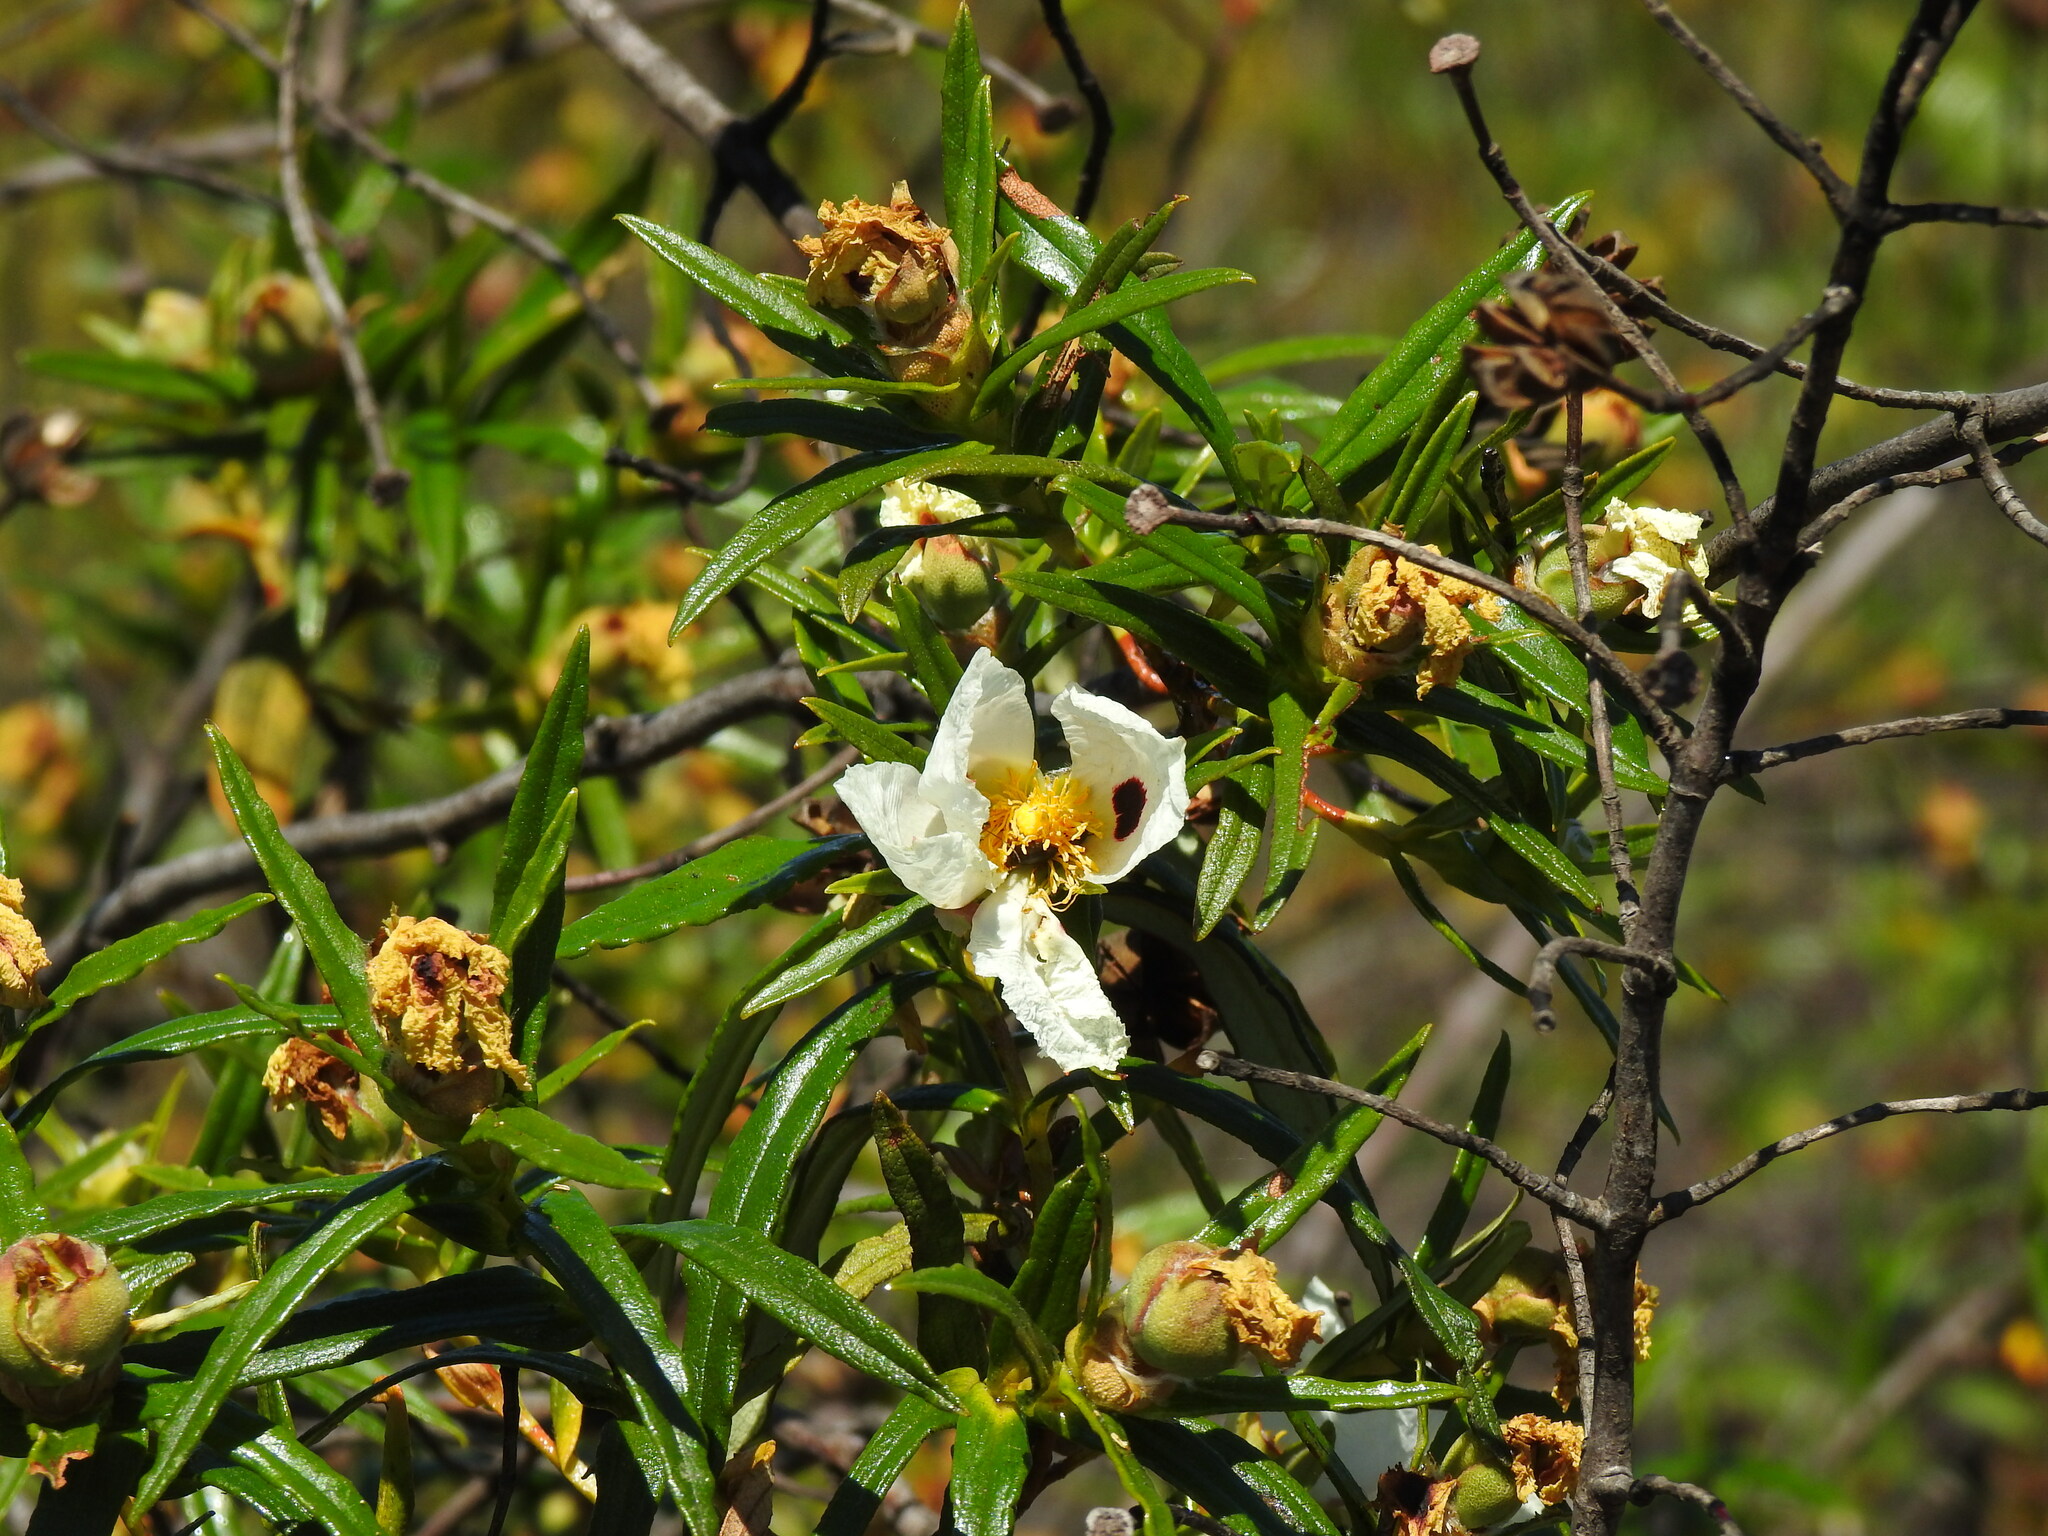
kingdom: Plantae
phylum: Tracheophyta
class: Magnoliopsida
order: Malvales
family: Cistaceae
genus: Cistus
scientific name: Cistus ladanifer
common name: Common gum cistus
